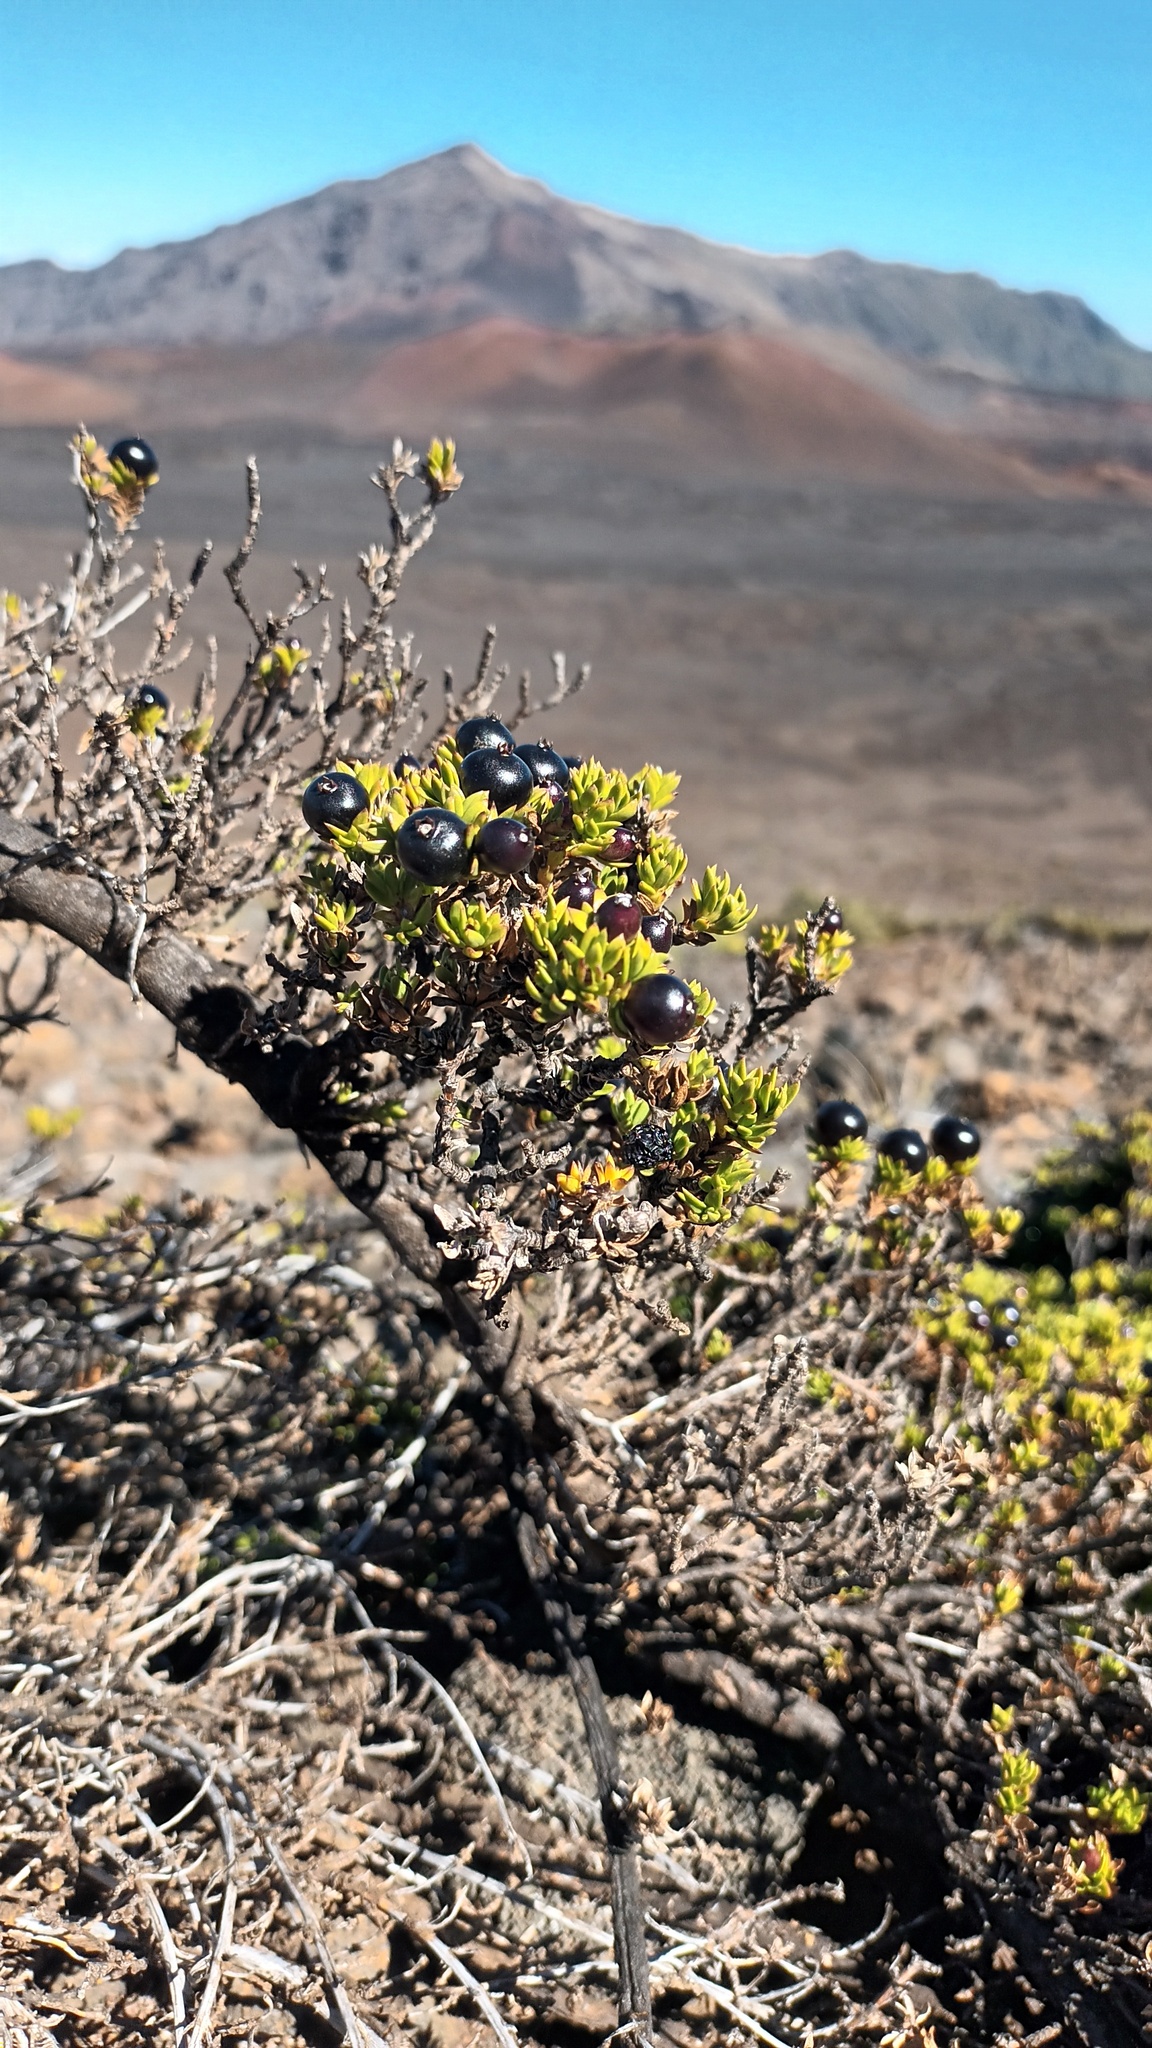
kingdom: Plantae
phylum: Tracheophyta
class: Magnoliopsida
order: Gentianales
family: Rubiaceae
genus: Coprosma
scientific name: Coprosma ernodeoides
